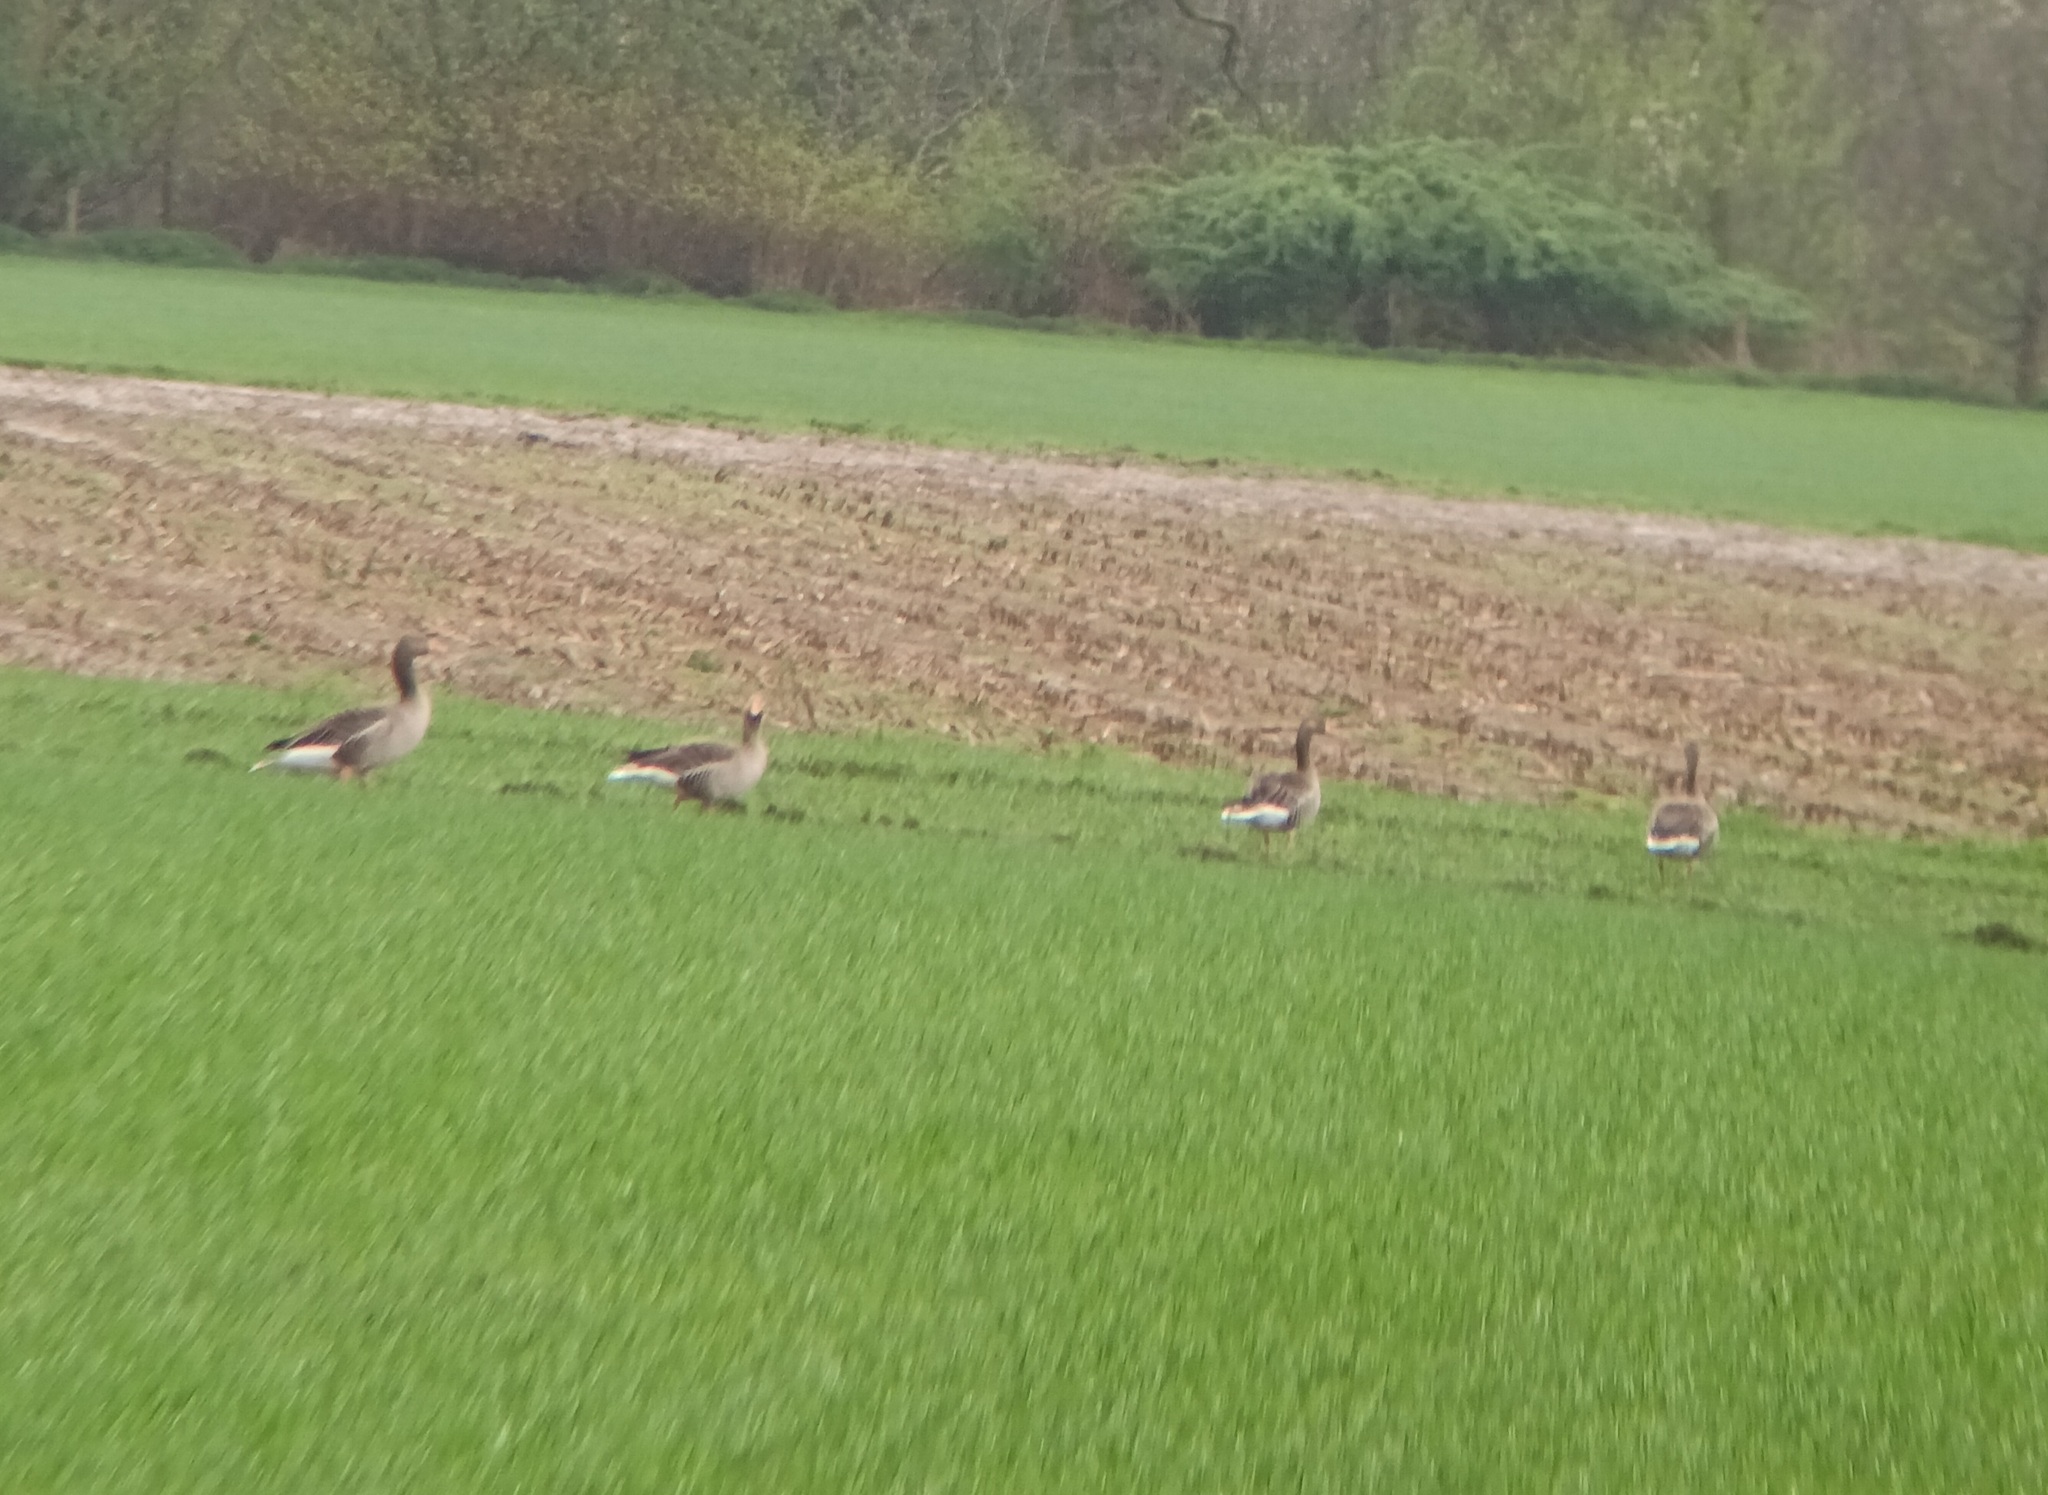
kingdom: Animalia
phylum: Chordata
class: Aves
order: Anseriformes
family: Anatidae
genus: Anser
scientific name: Anser anser
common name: Greylag goose
